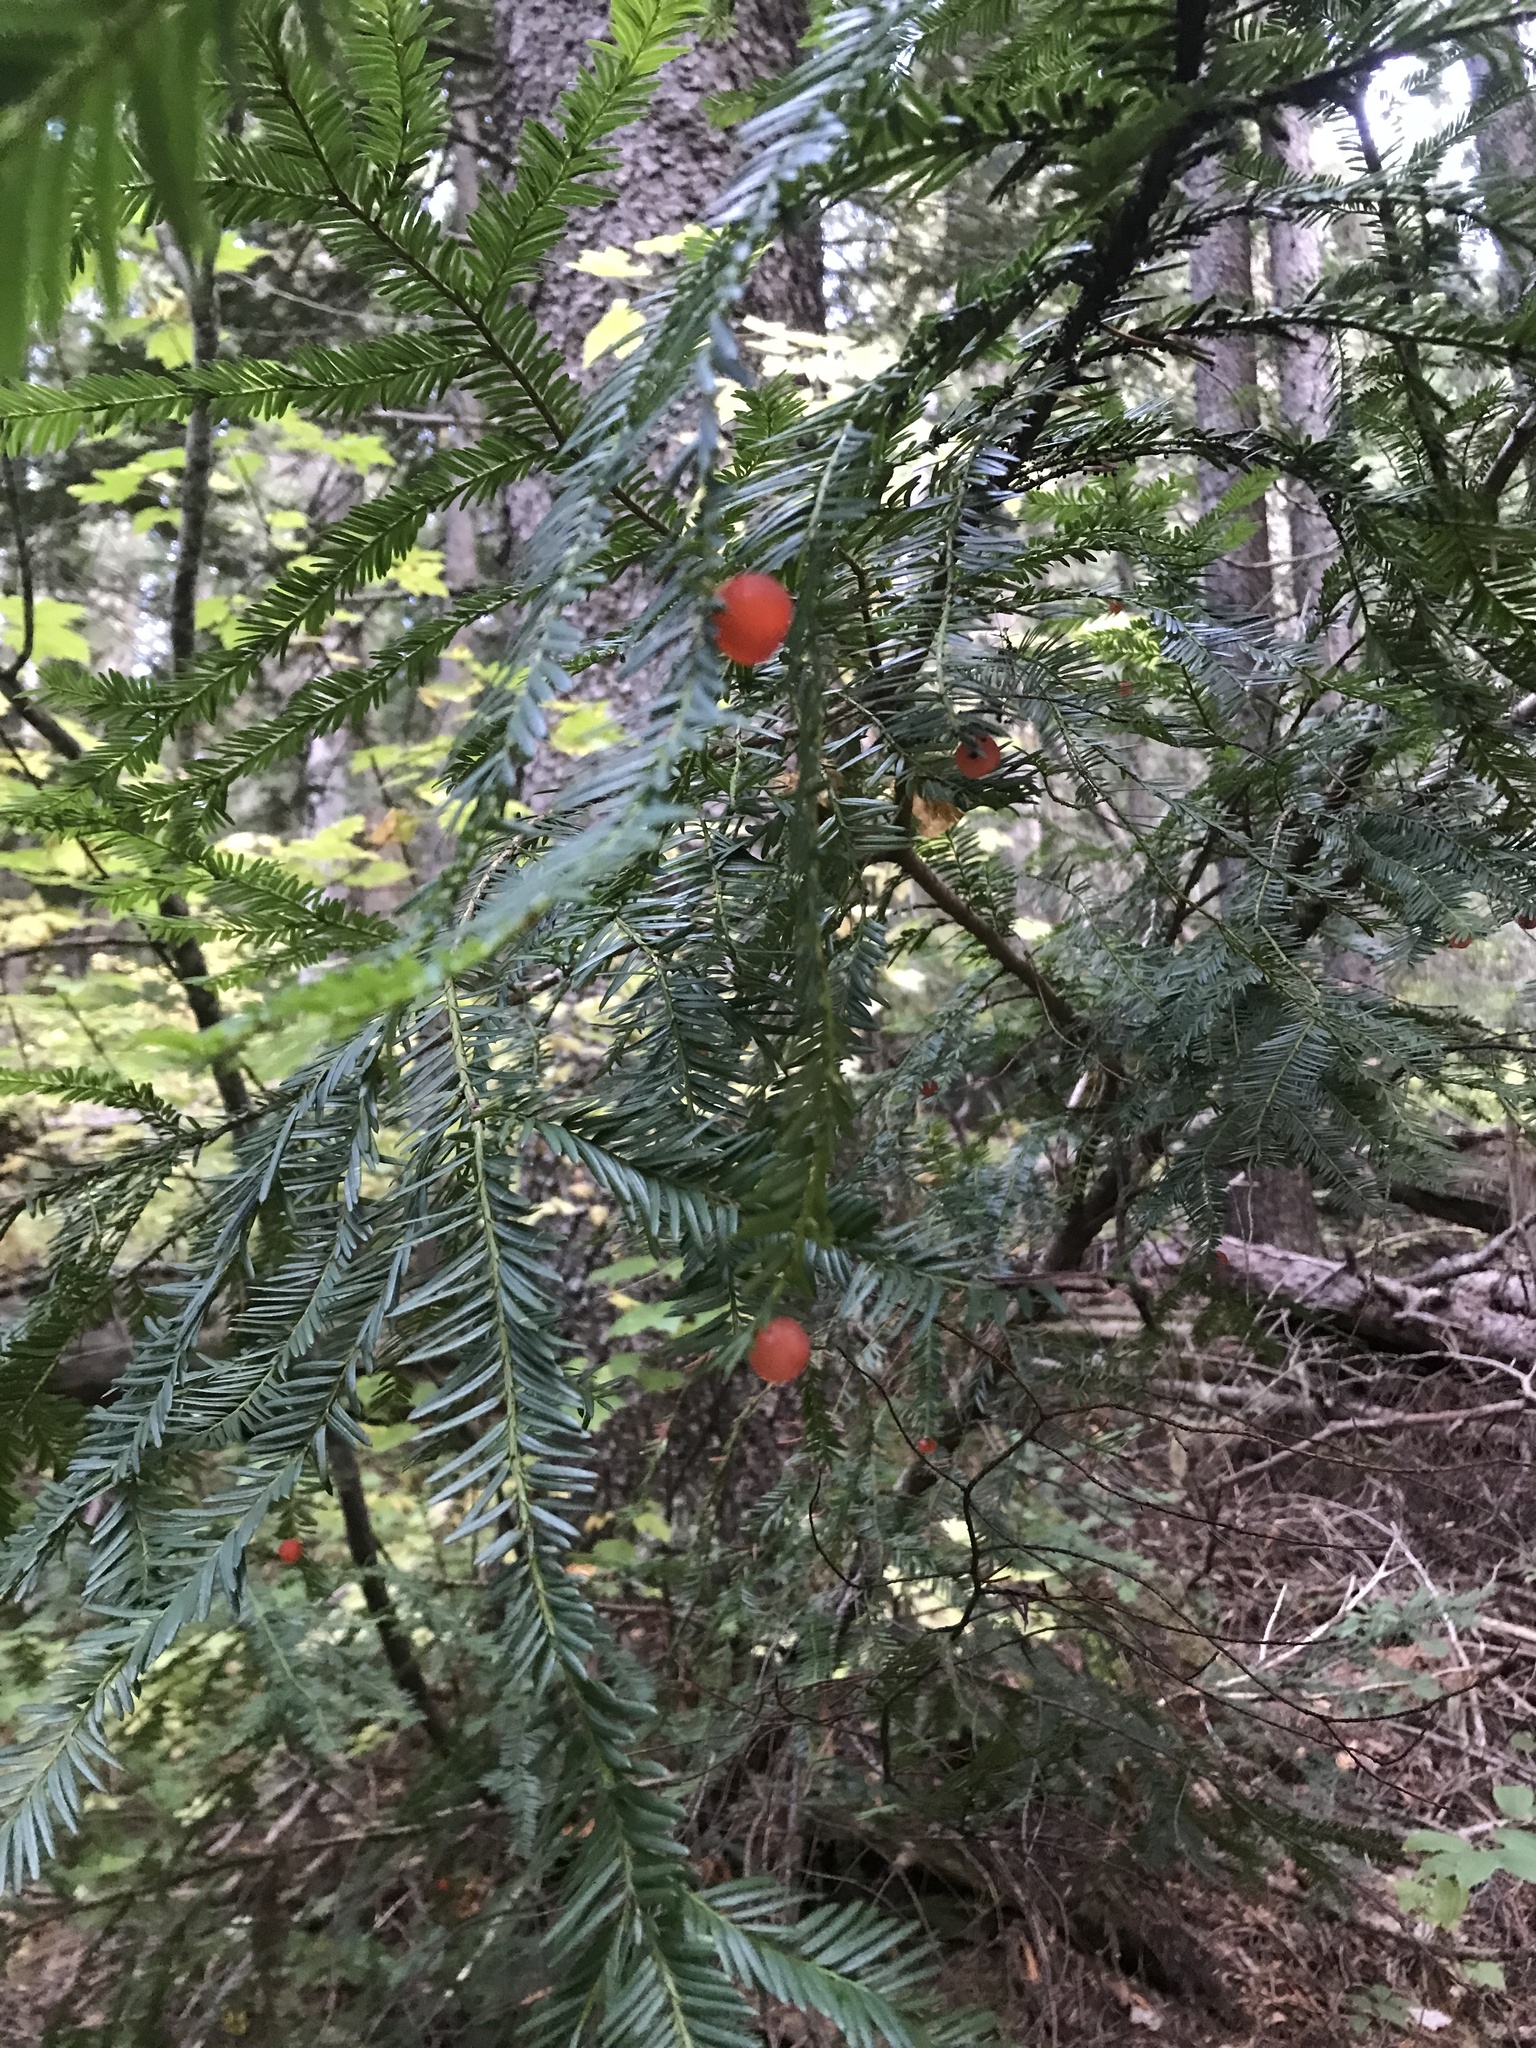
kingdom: Plantae
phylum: Tracheophyta
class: Pinopsida
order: Pinales
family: Taxaceae
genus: Taxus
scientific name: Taxus brevifolia
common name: Pacific yew
